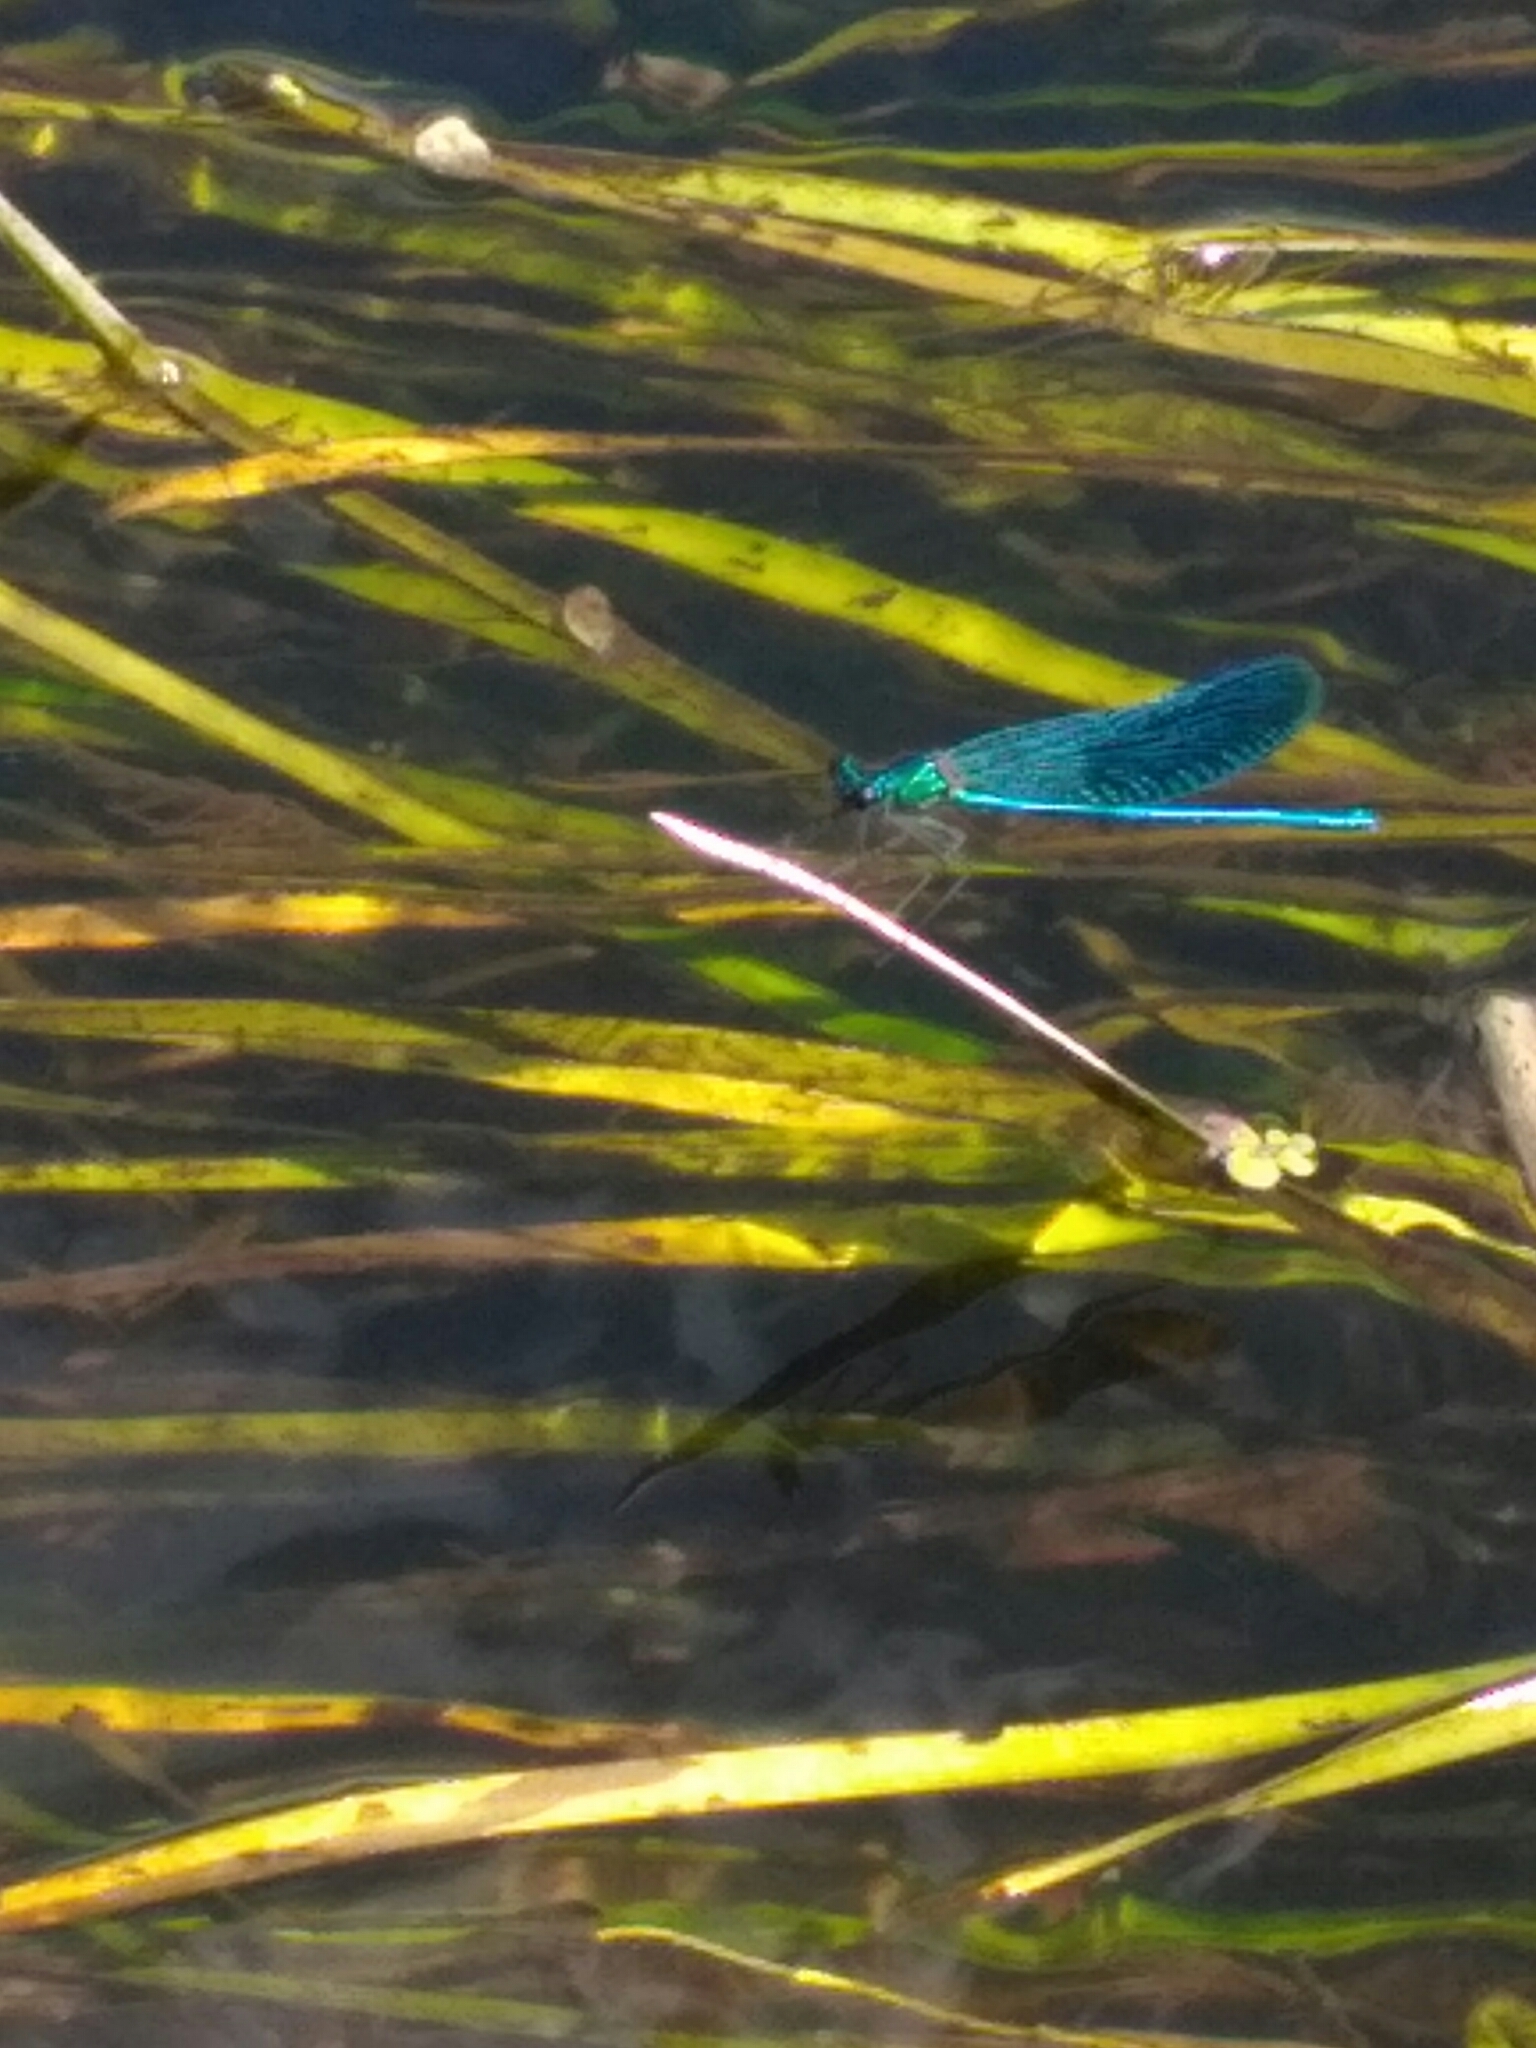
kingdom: Animalia
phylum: Arthropoda
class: Insecta
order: Odonata
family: Calopterygidae
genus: Calopteryx
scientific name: Calopteryx splendens
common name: Banded demoiselle
